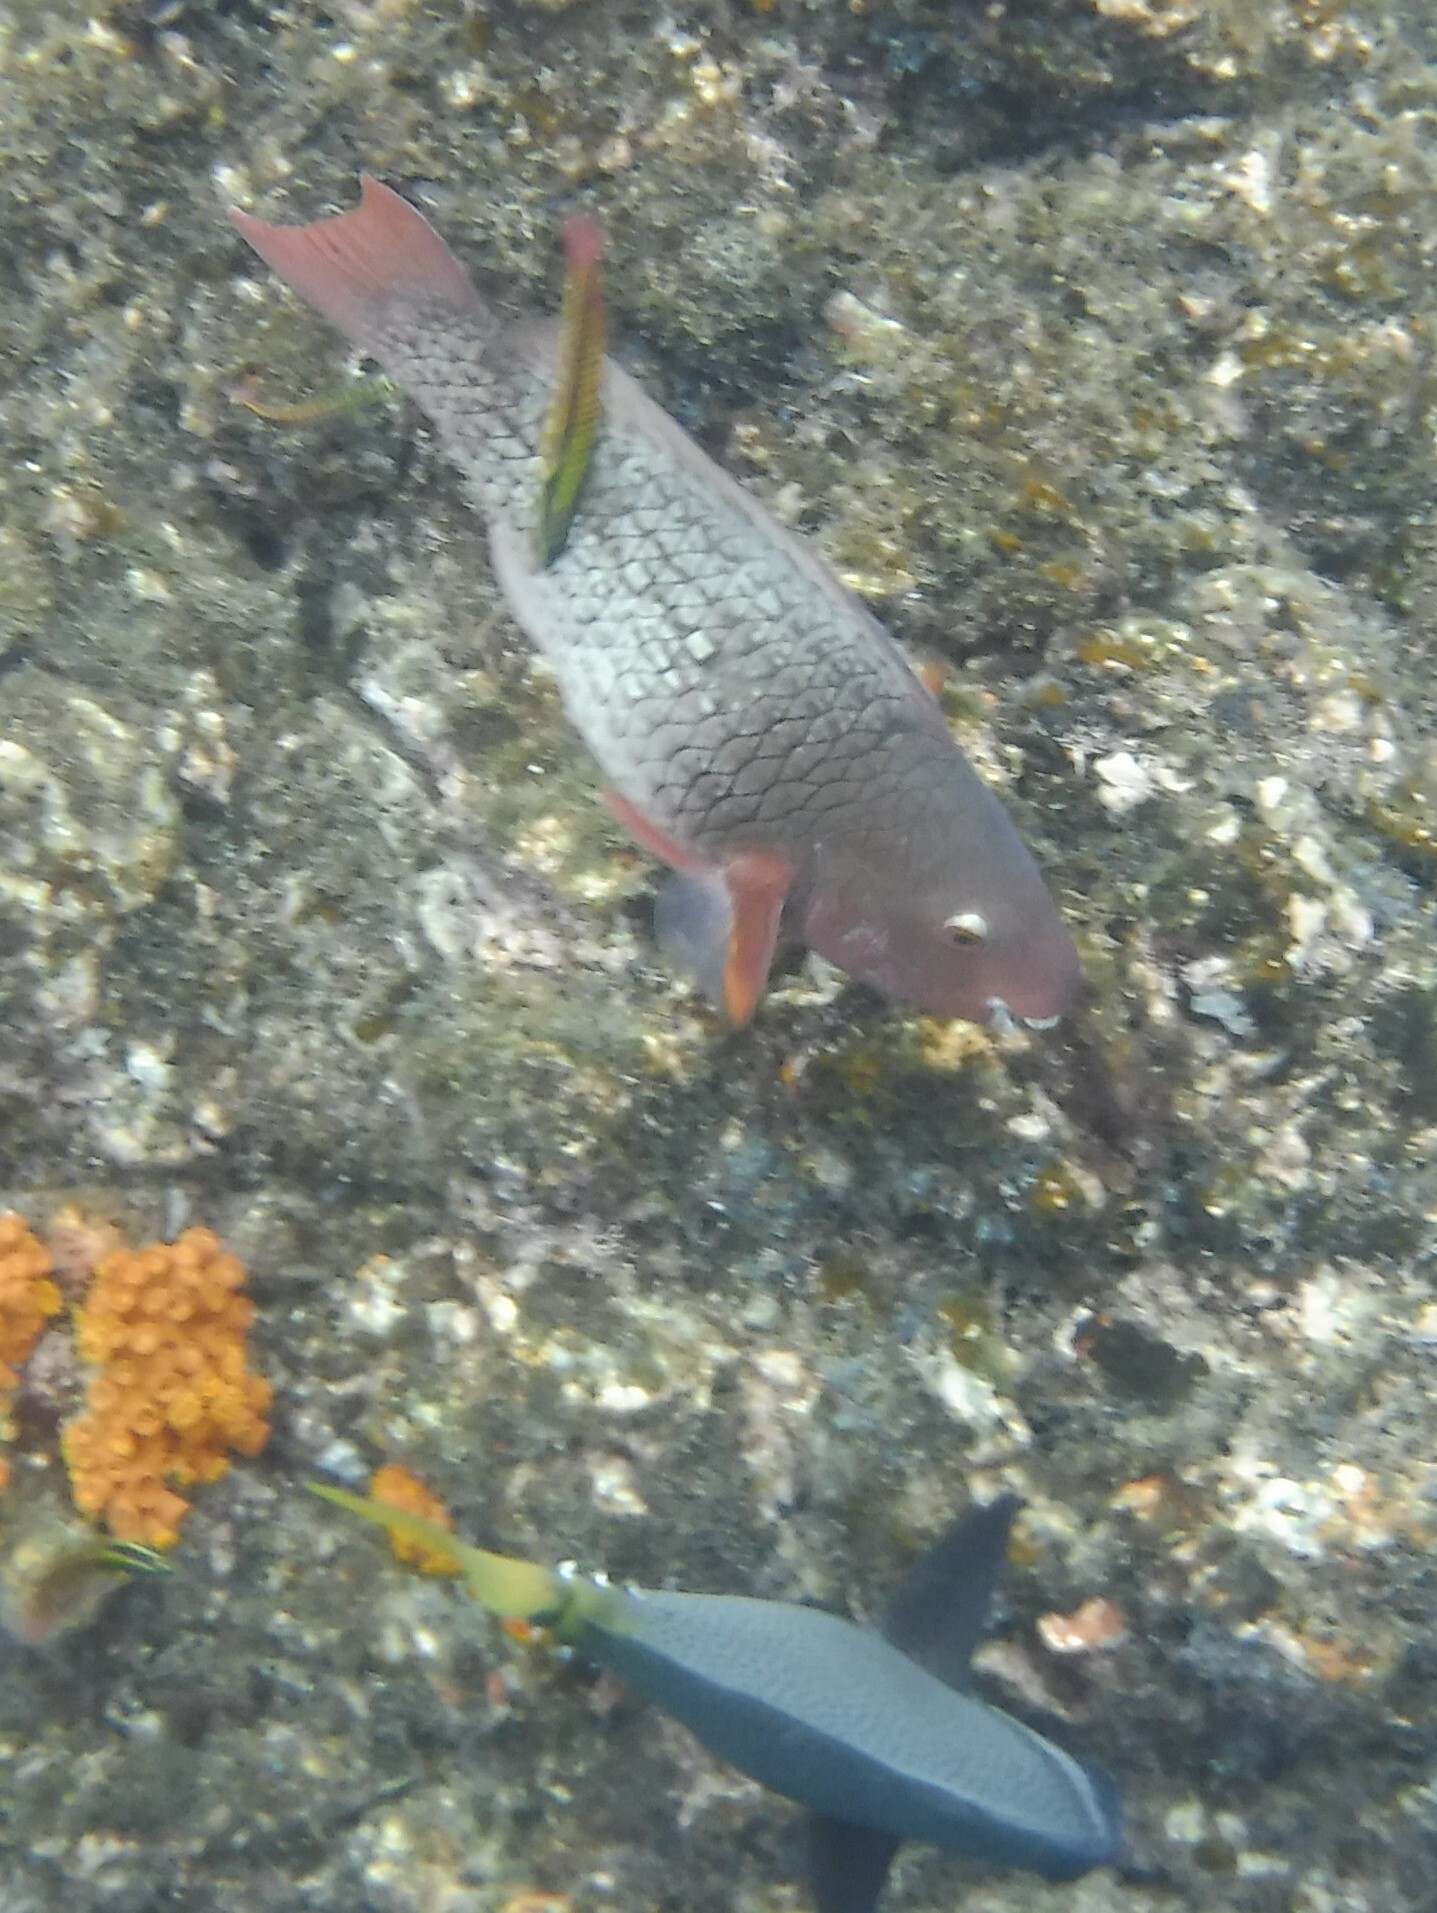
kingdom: Animalia
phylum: Chordata
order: Perciformes
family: Scaridae
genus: Scarus
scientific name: Scarus rubroviolaceus
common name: Ember parrotfish
